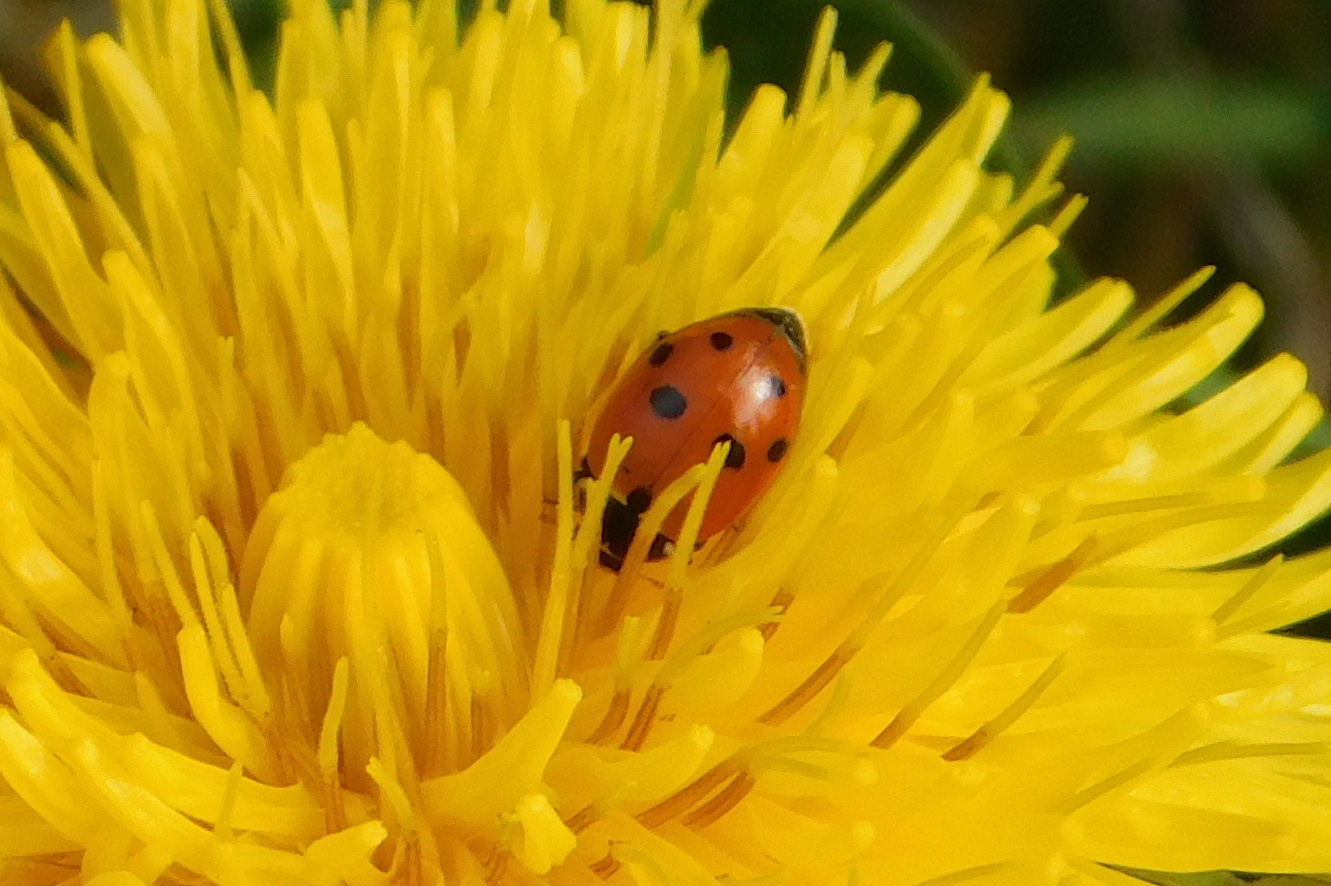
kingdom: Animalia
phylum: Arthropoda
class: Insecta
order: Coleoptera
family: Coccinellidae
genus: Hippodamia
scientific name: Hippodamia variegata
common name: Ladybird beetle
